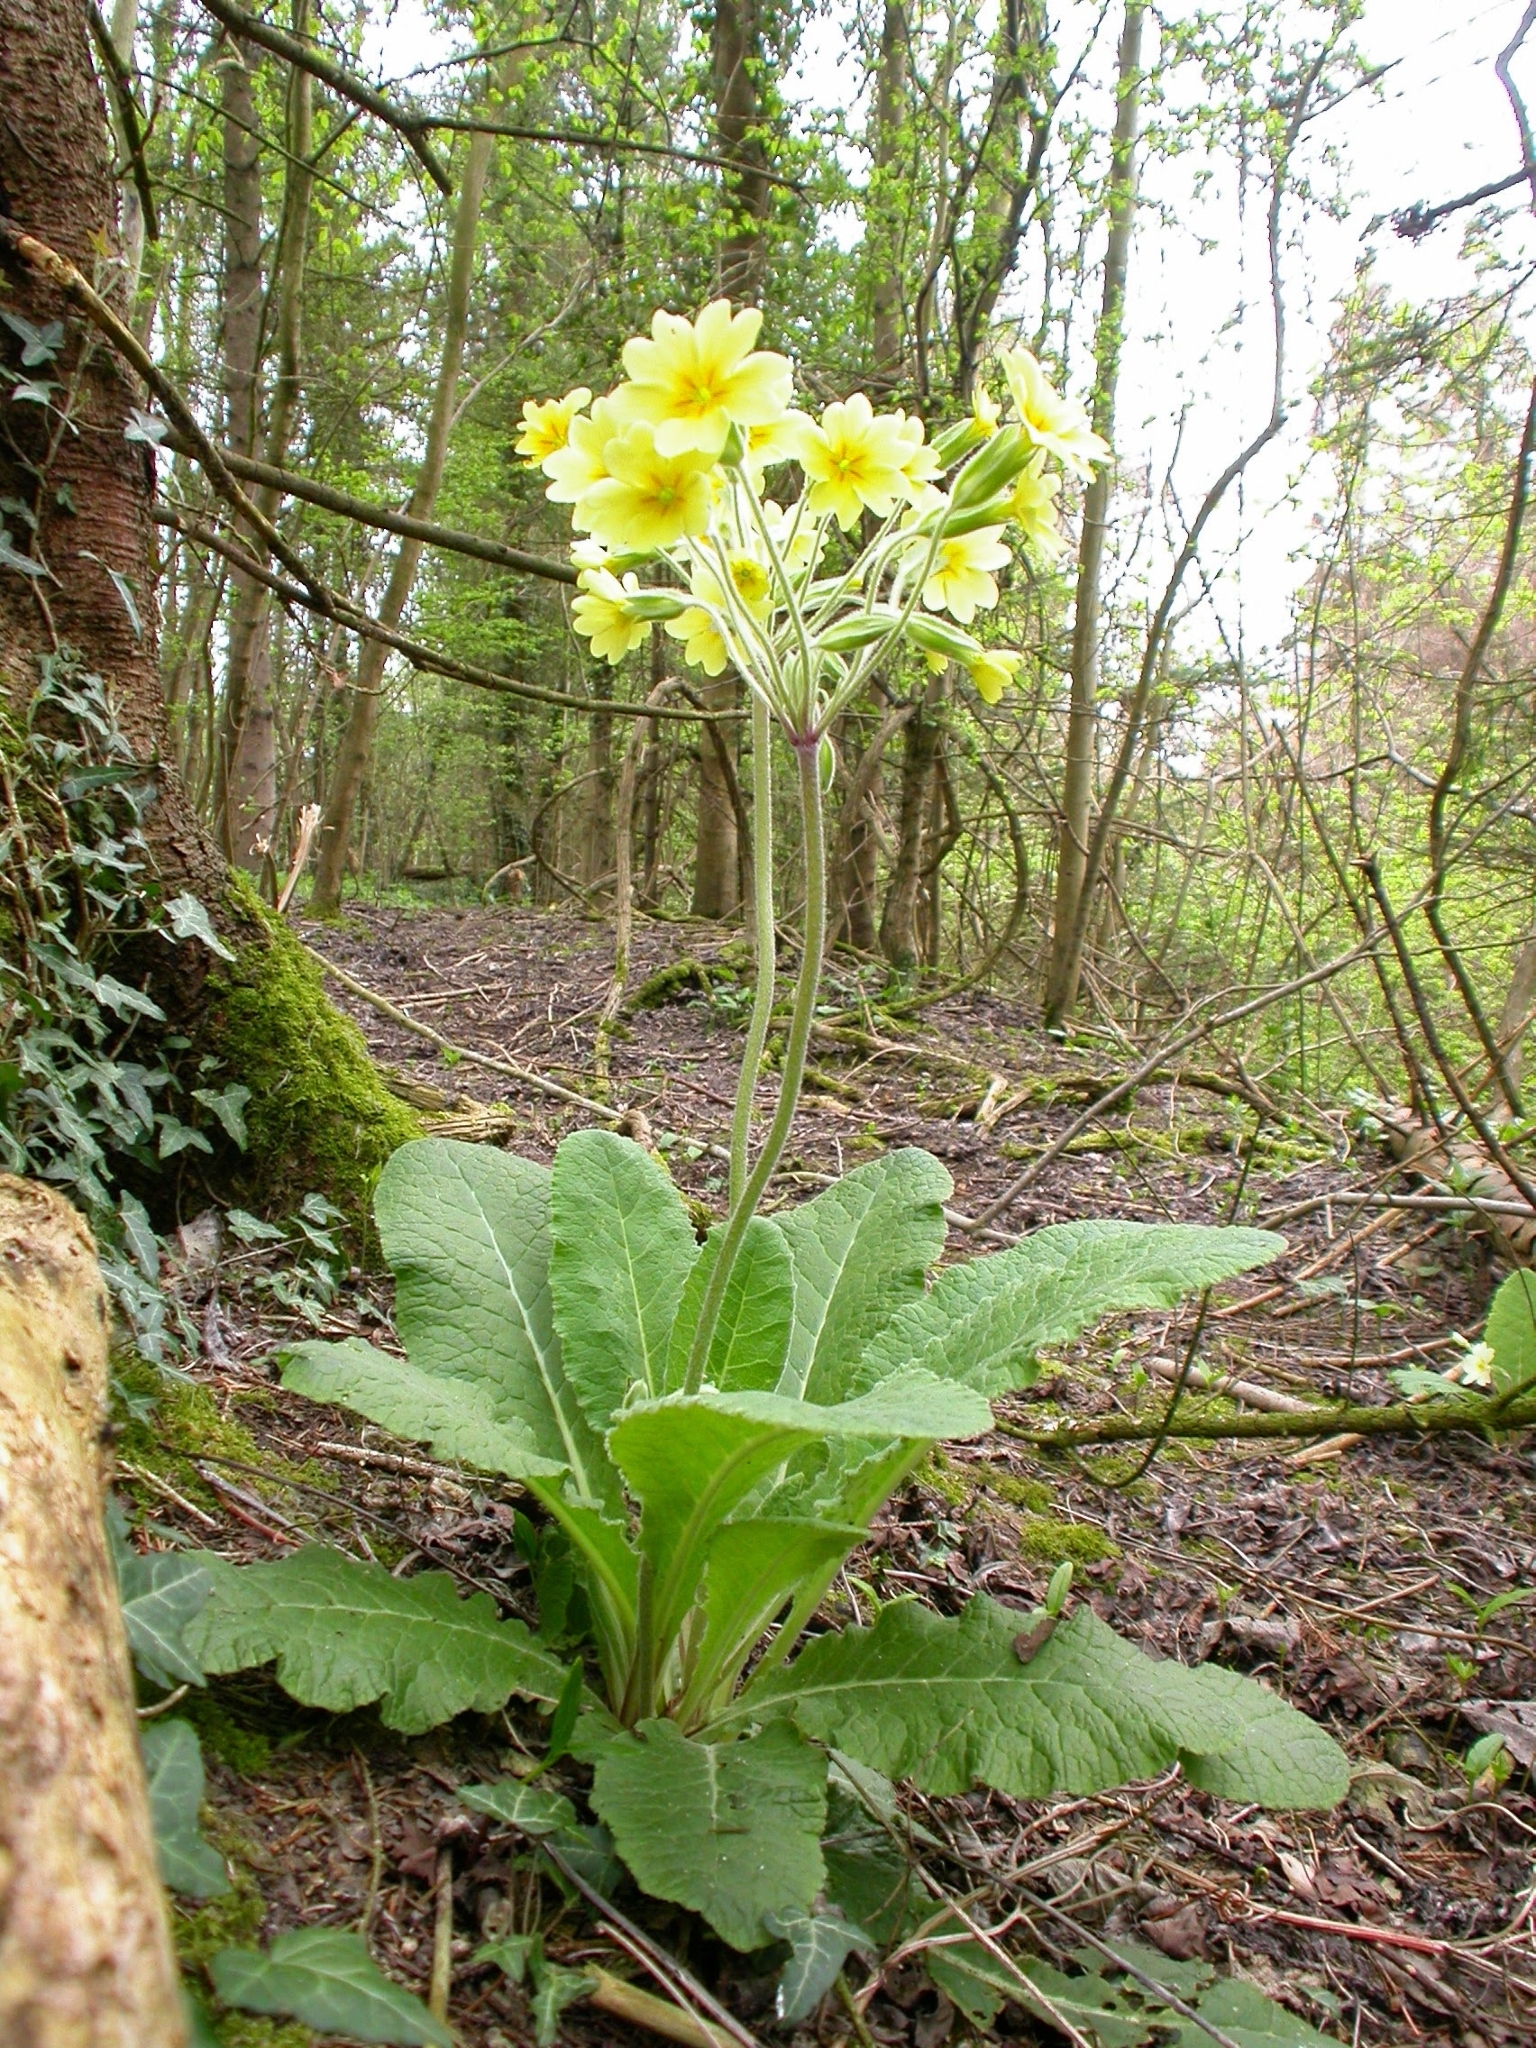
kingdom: Plantae
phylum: Tracheophyta
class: Magnoliopsida
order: Ericales
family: Primulaceae
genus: Primula
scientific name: Primula polyantha
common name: False oxlip
